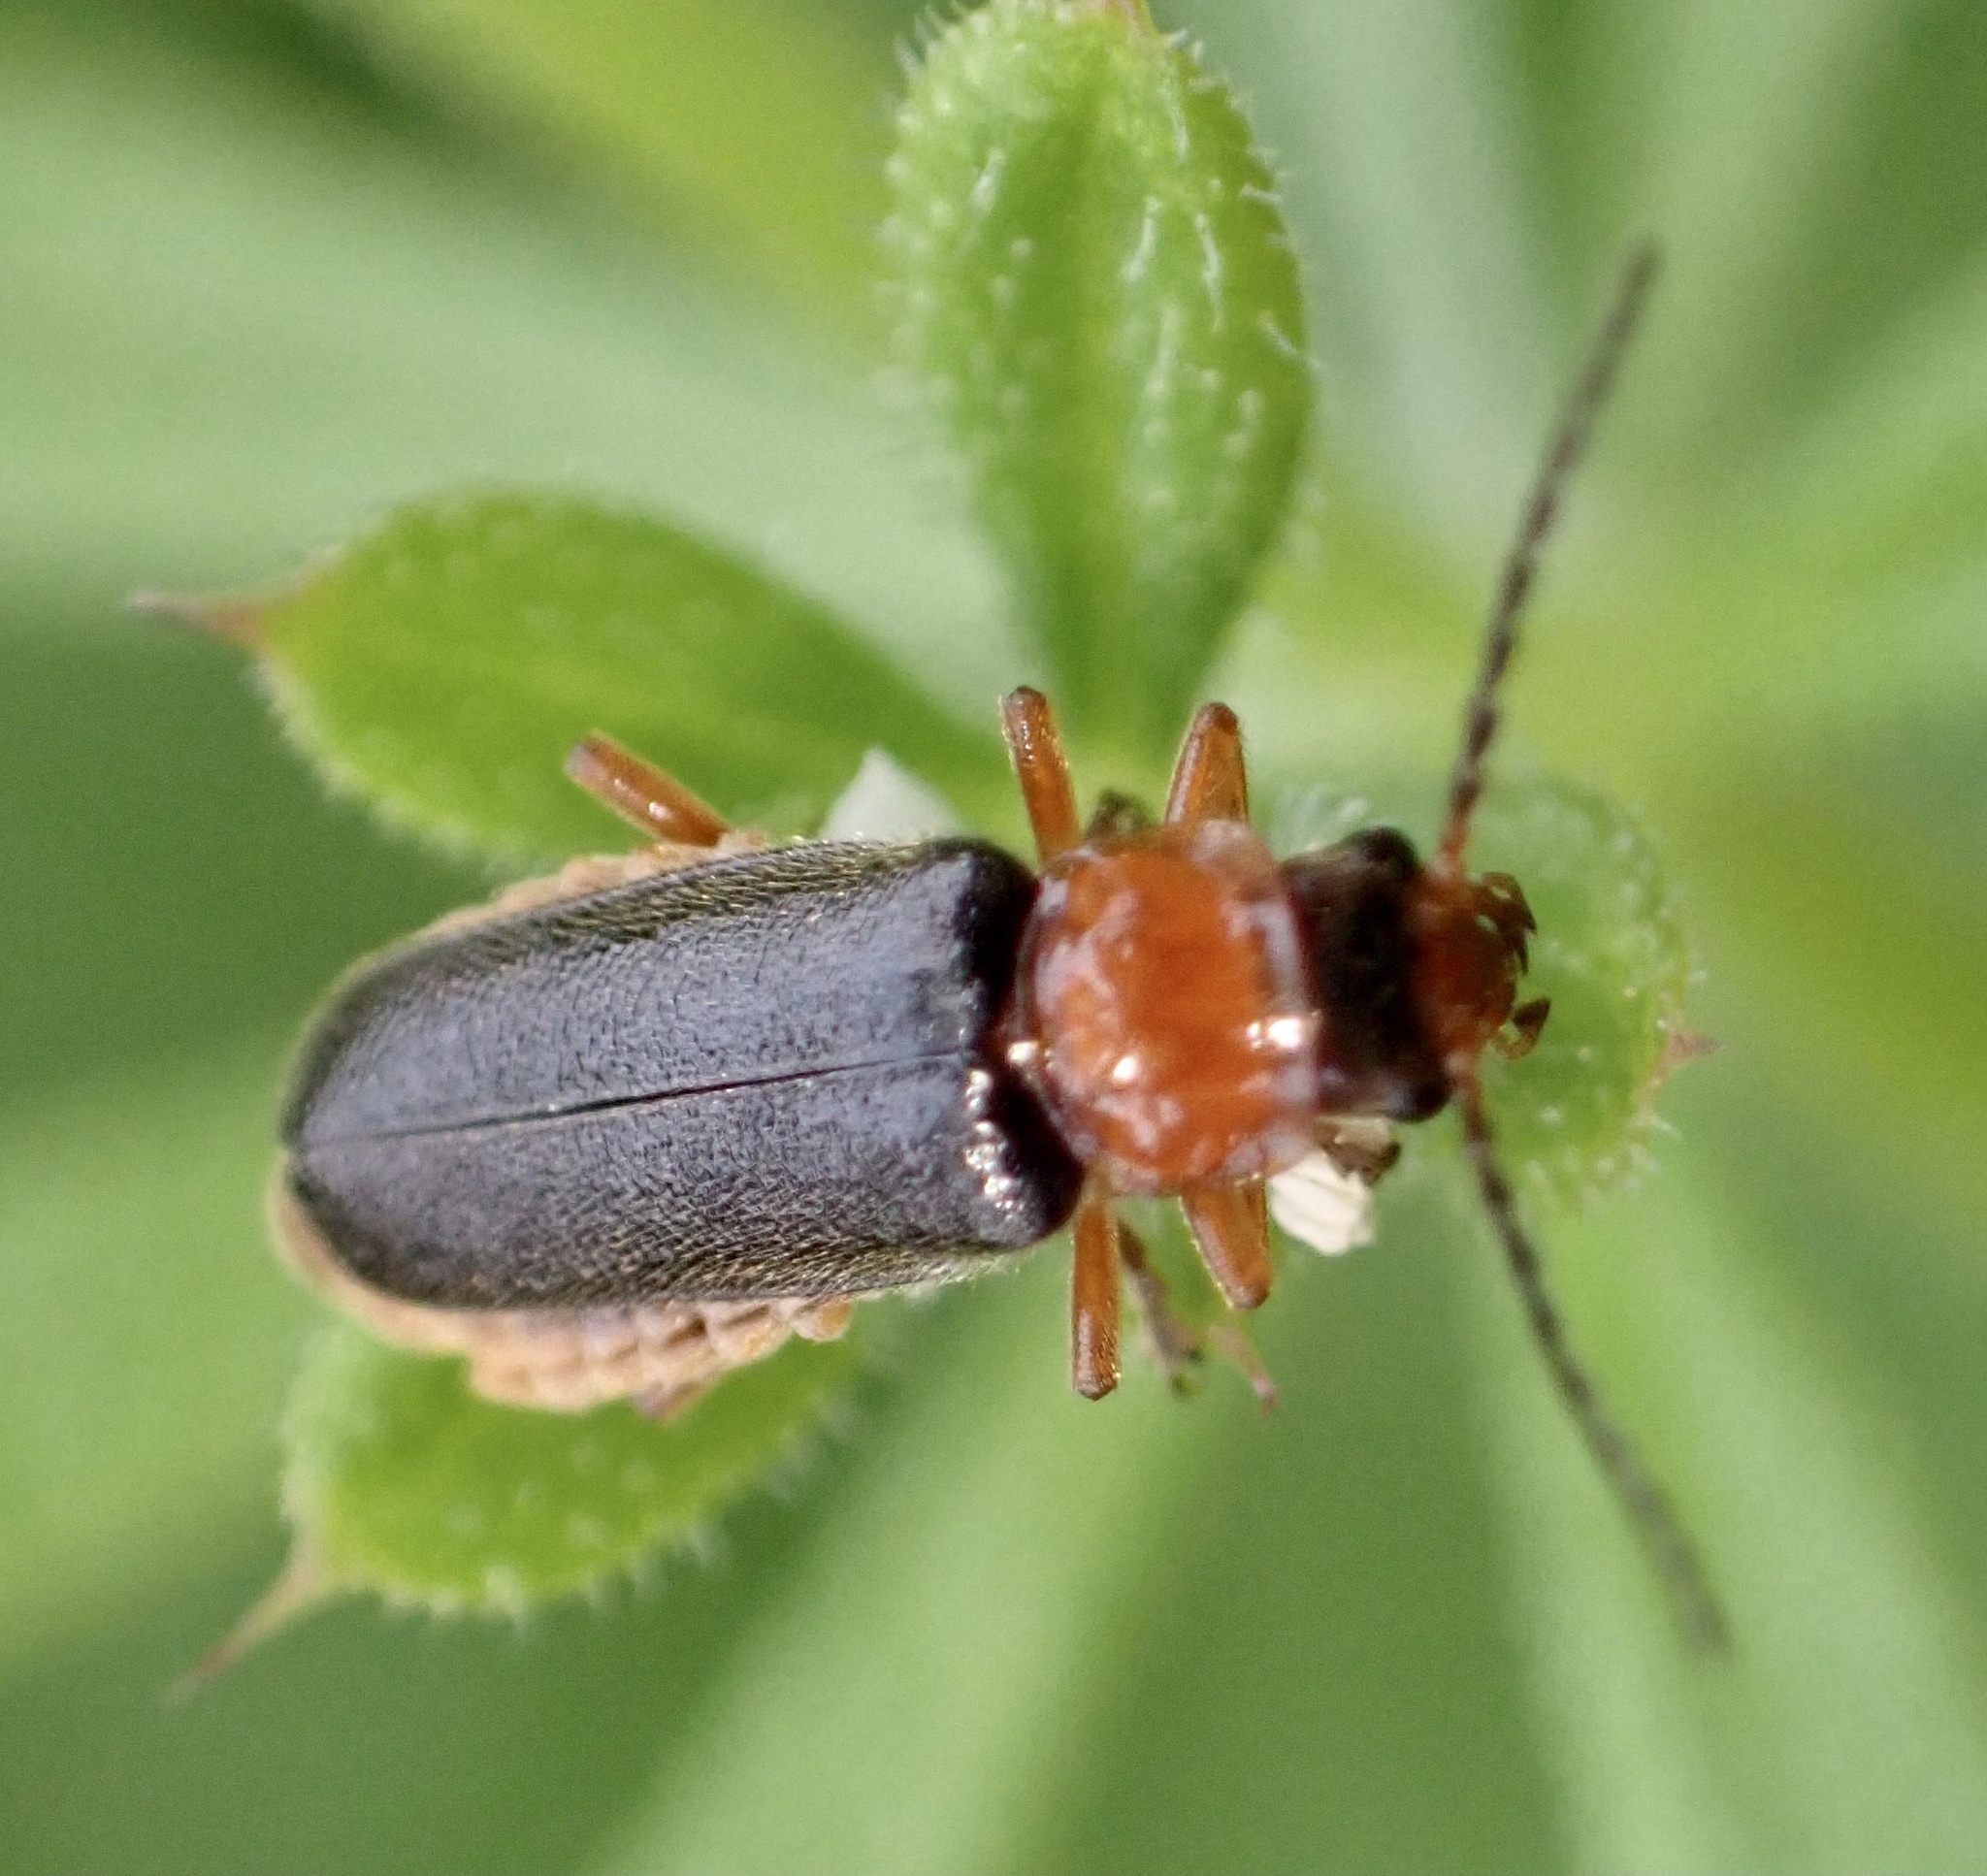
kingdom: Animalia
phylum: Arthropoda
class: Insecta
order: Coleoptera
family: Cantharidae
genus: Cantharis
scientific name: Cantharis flavilabris
